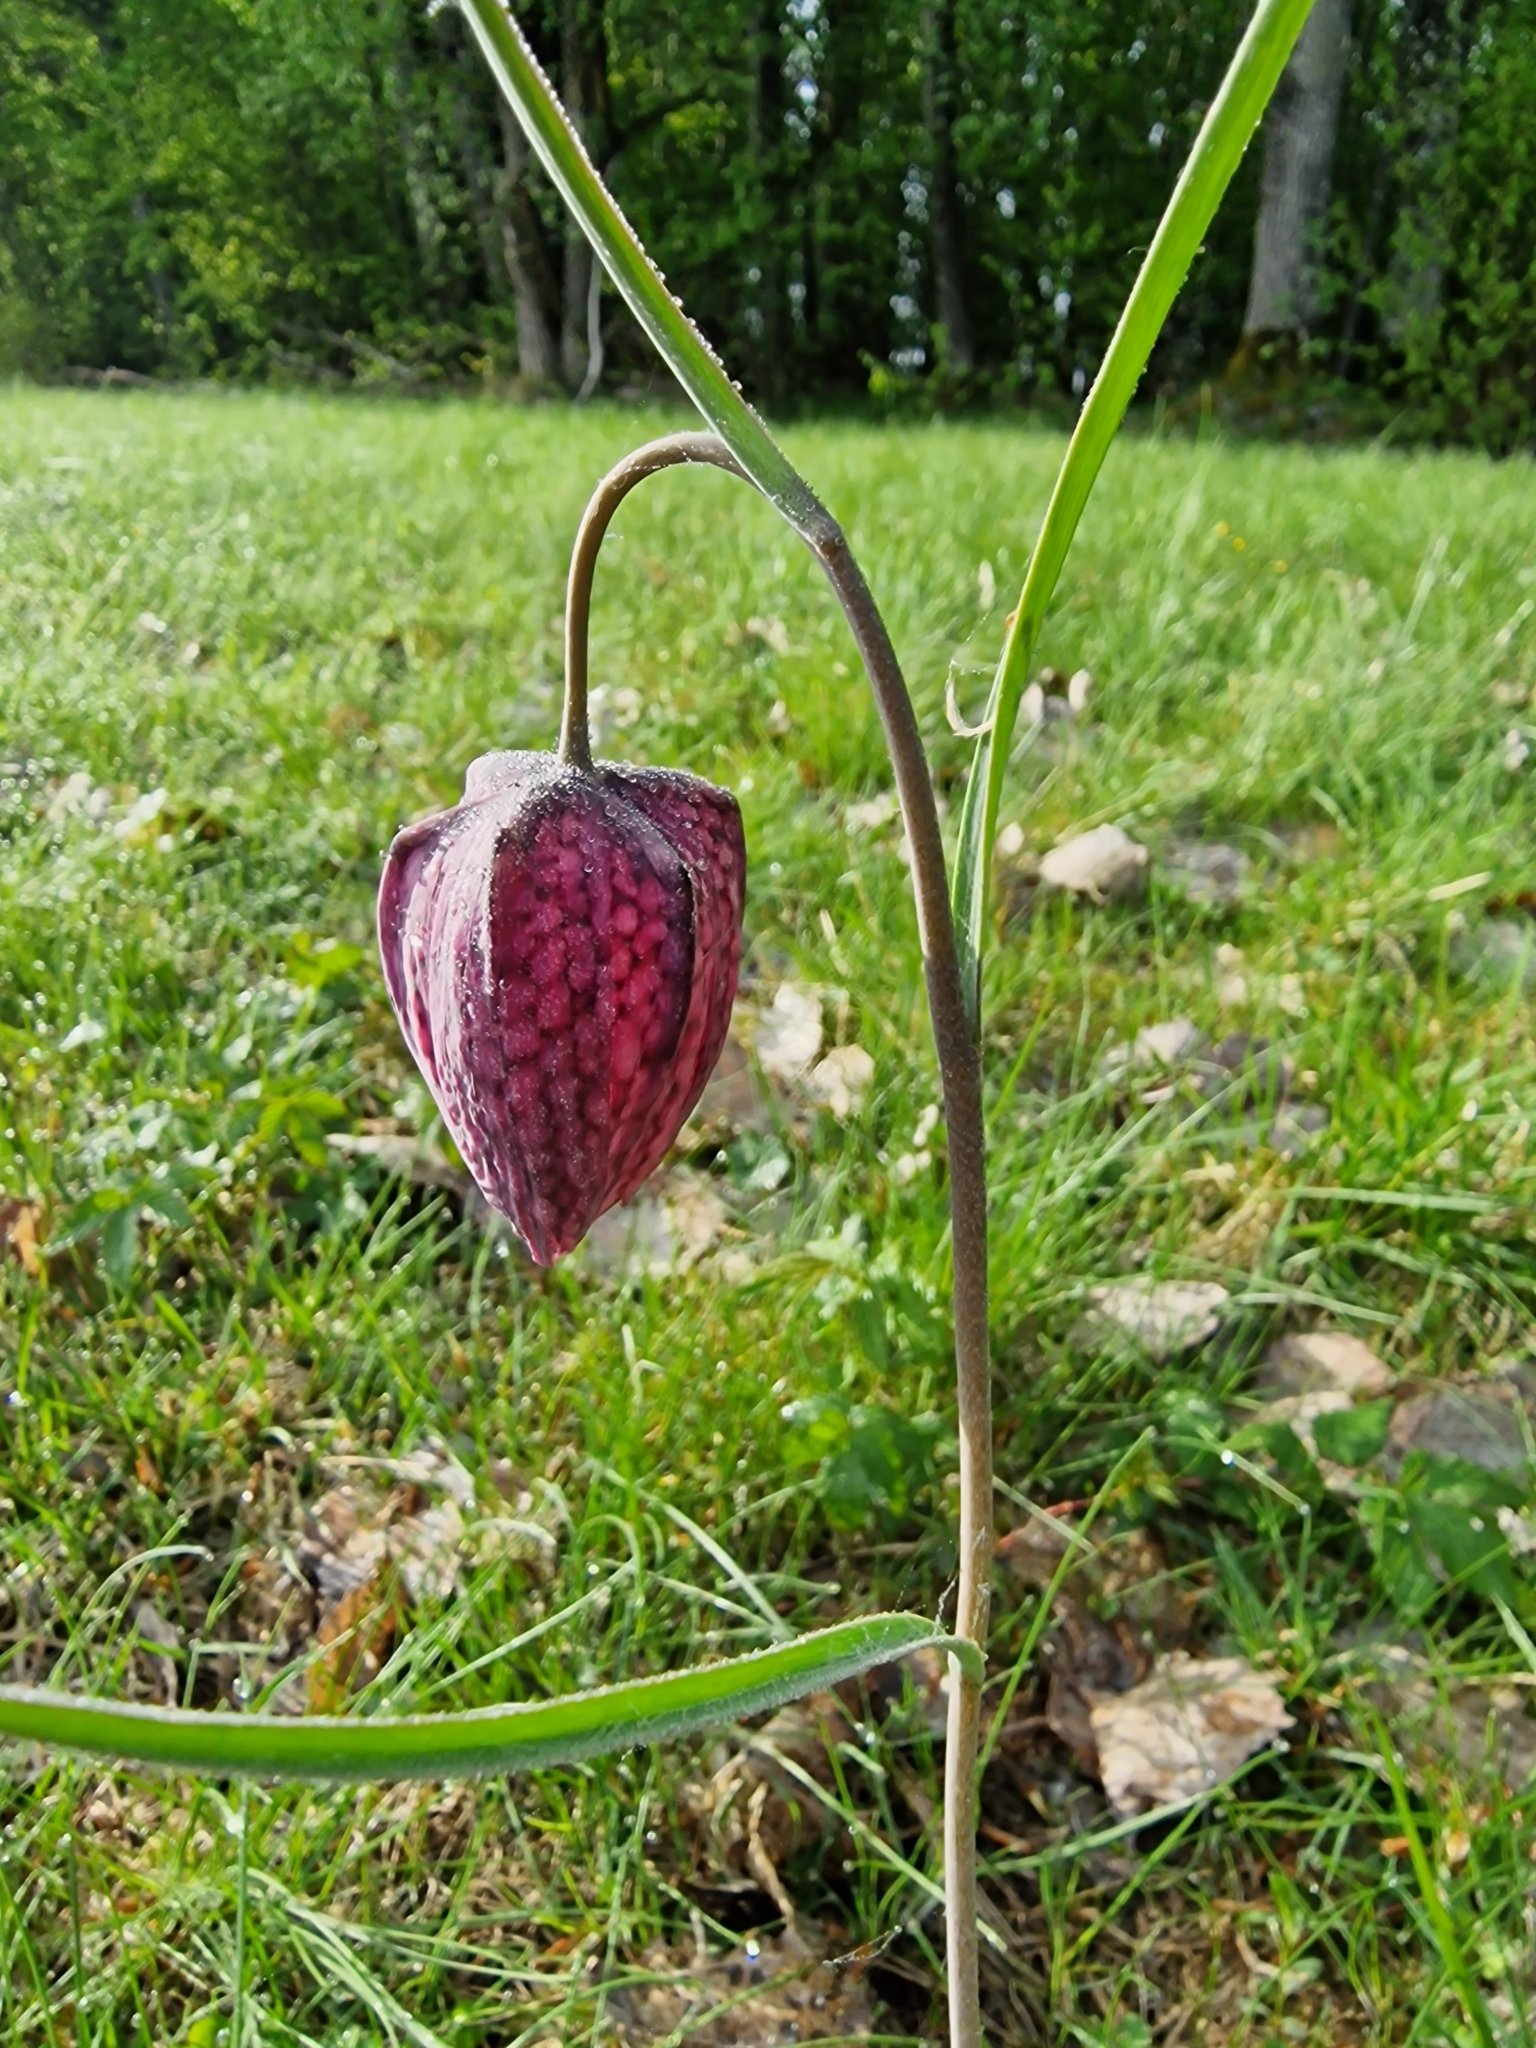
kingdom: Plantae
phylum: Tracheophyta
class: Liliopsida
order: Liliales
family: Liliaceae
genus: Fritillaria
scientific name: Fritillaria meleagris
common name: Fritillary
